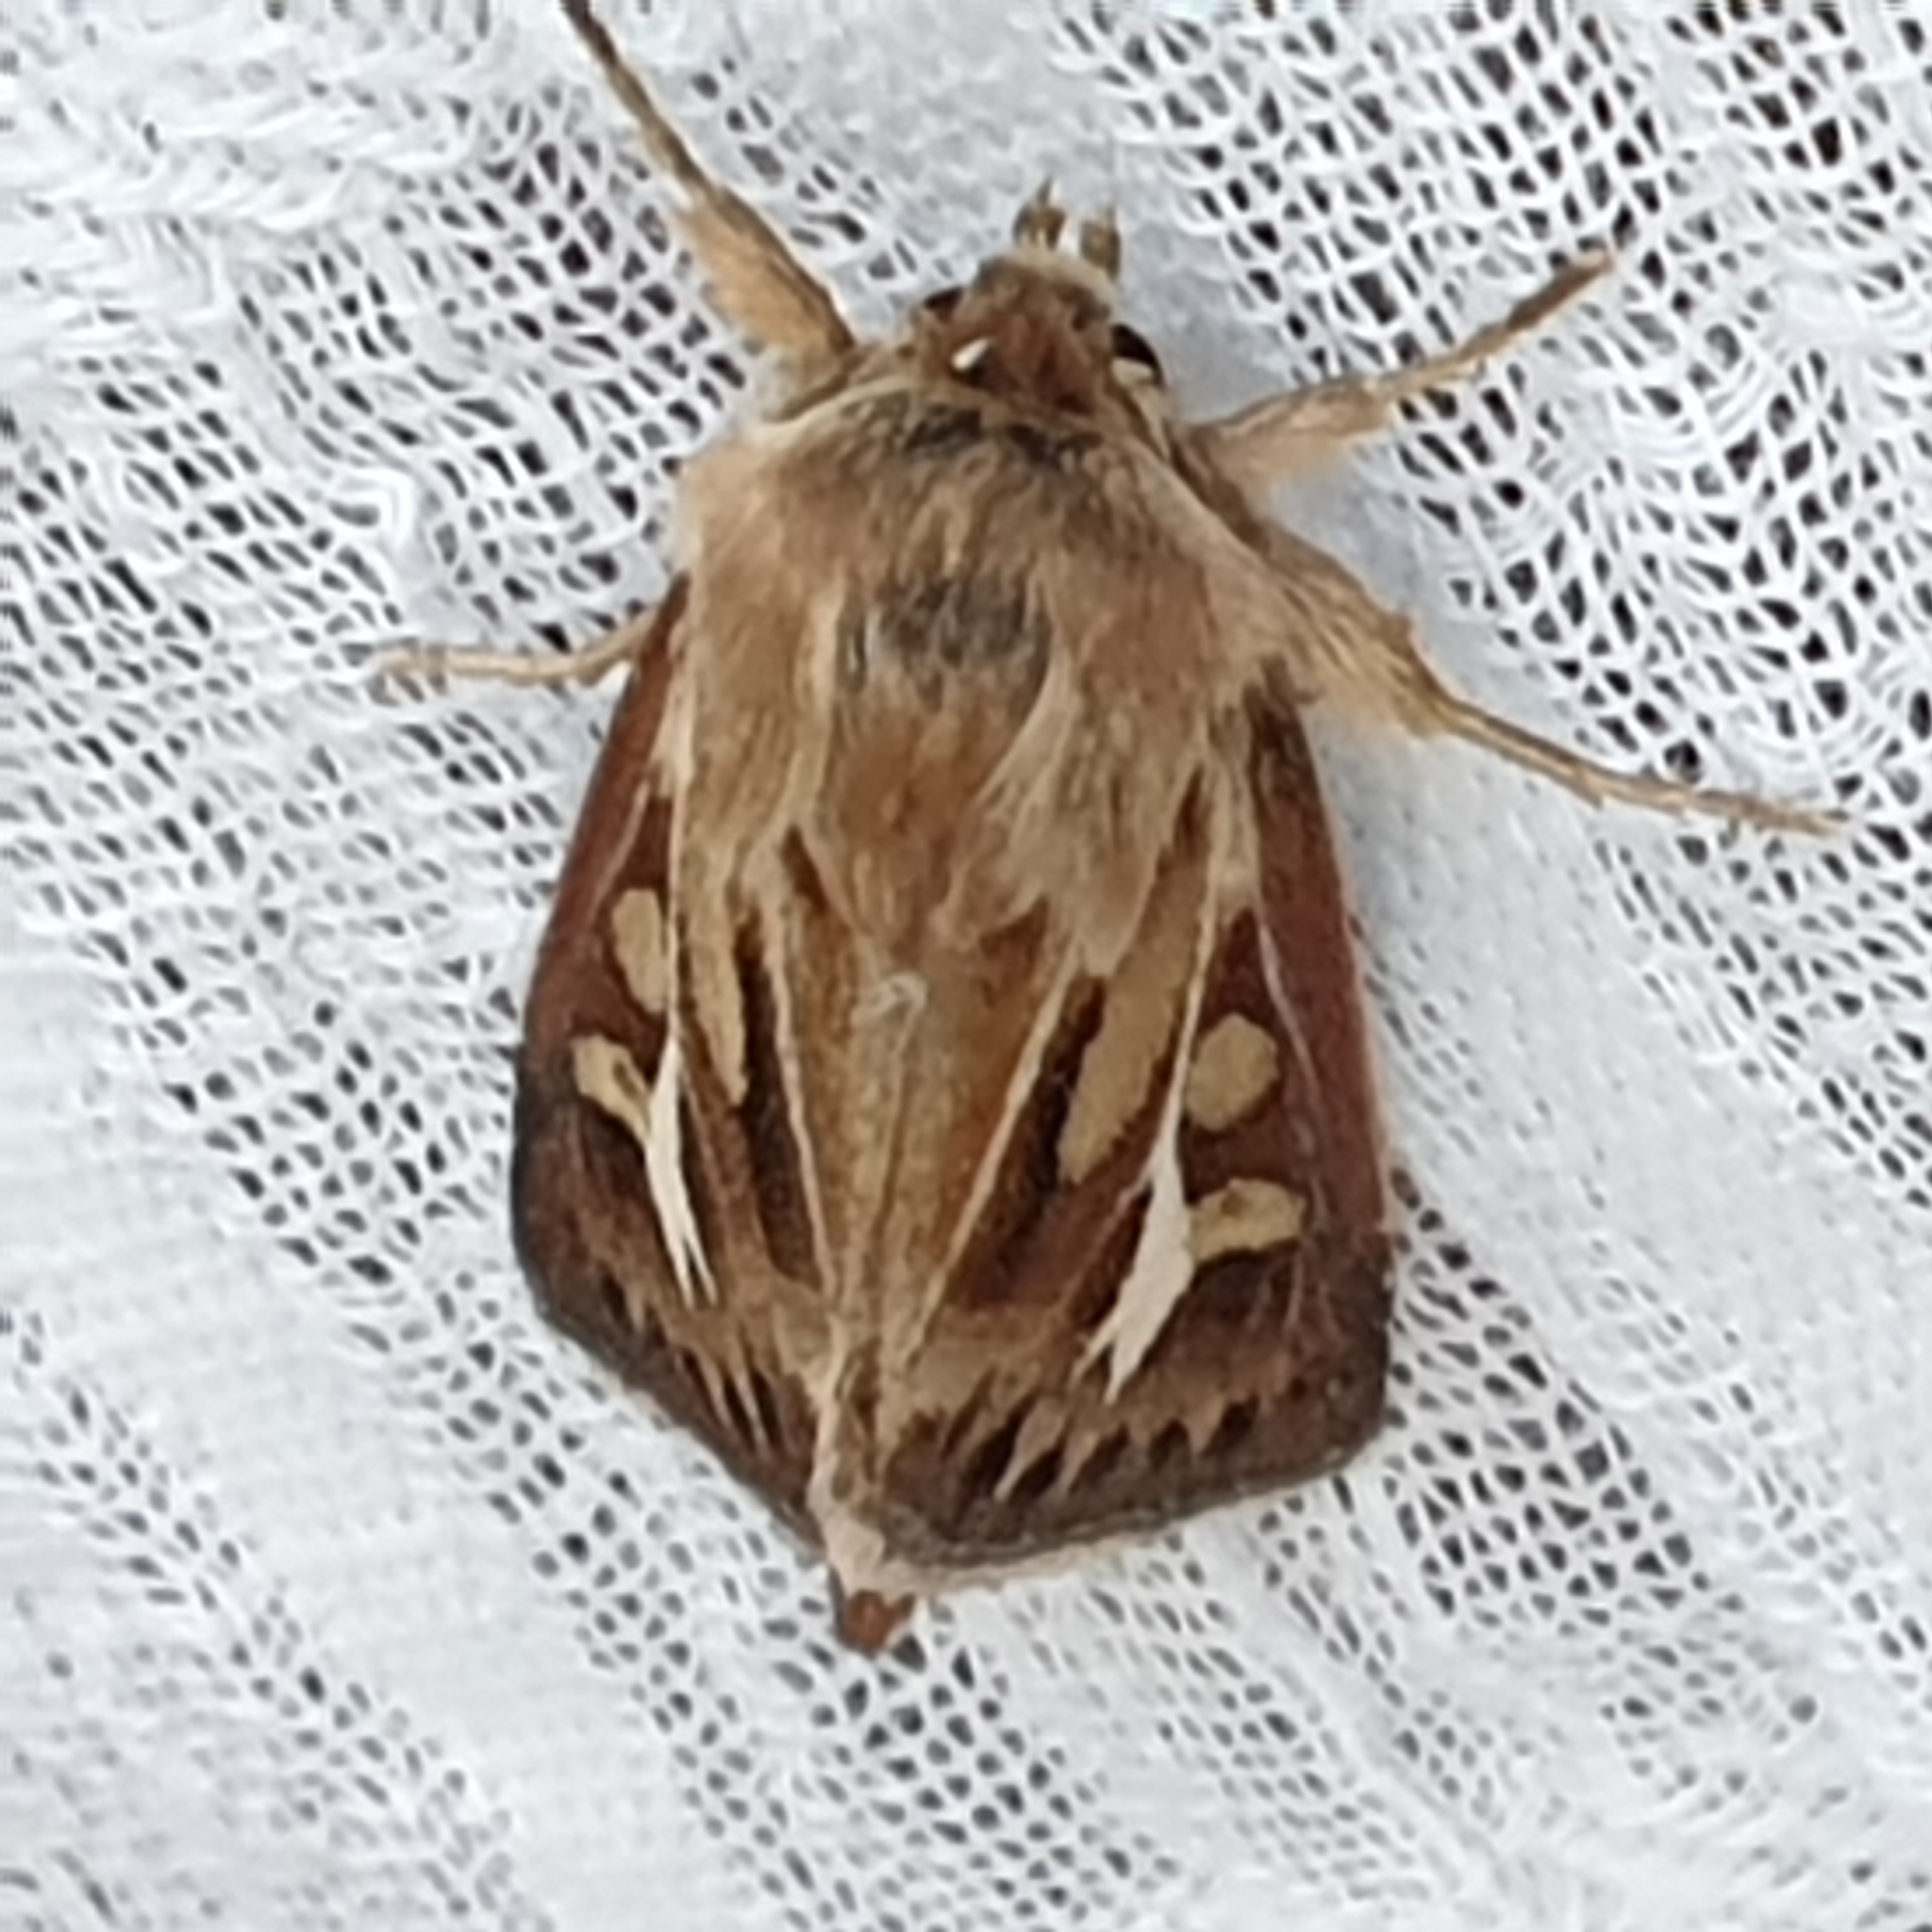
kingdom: Animalia
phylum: Arthropoda
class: Insecta
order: Lepidoptera
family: Noctuidae
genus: Cerapteryx
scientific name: Cerapteryx graminis
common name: Antler moth
